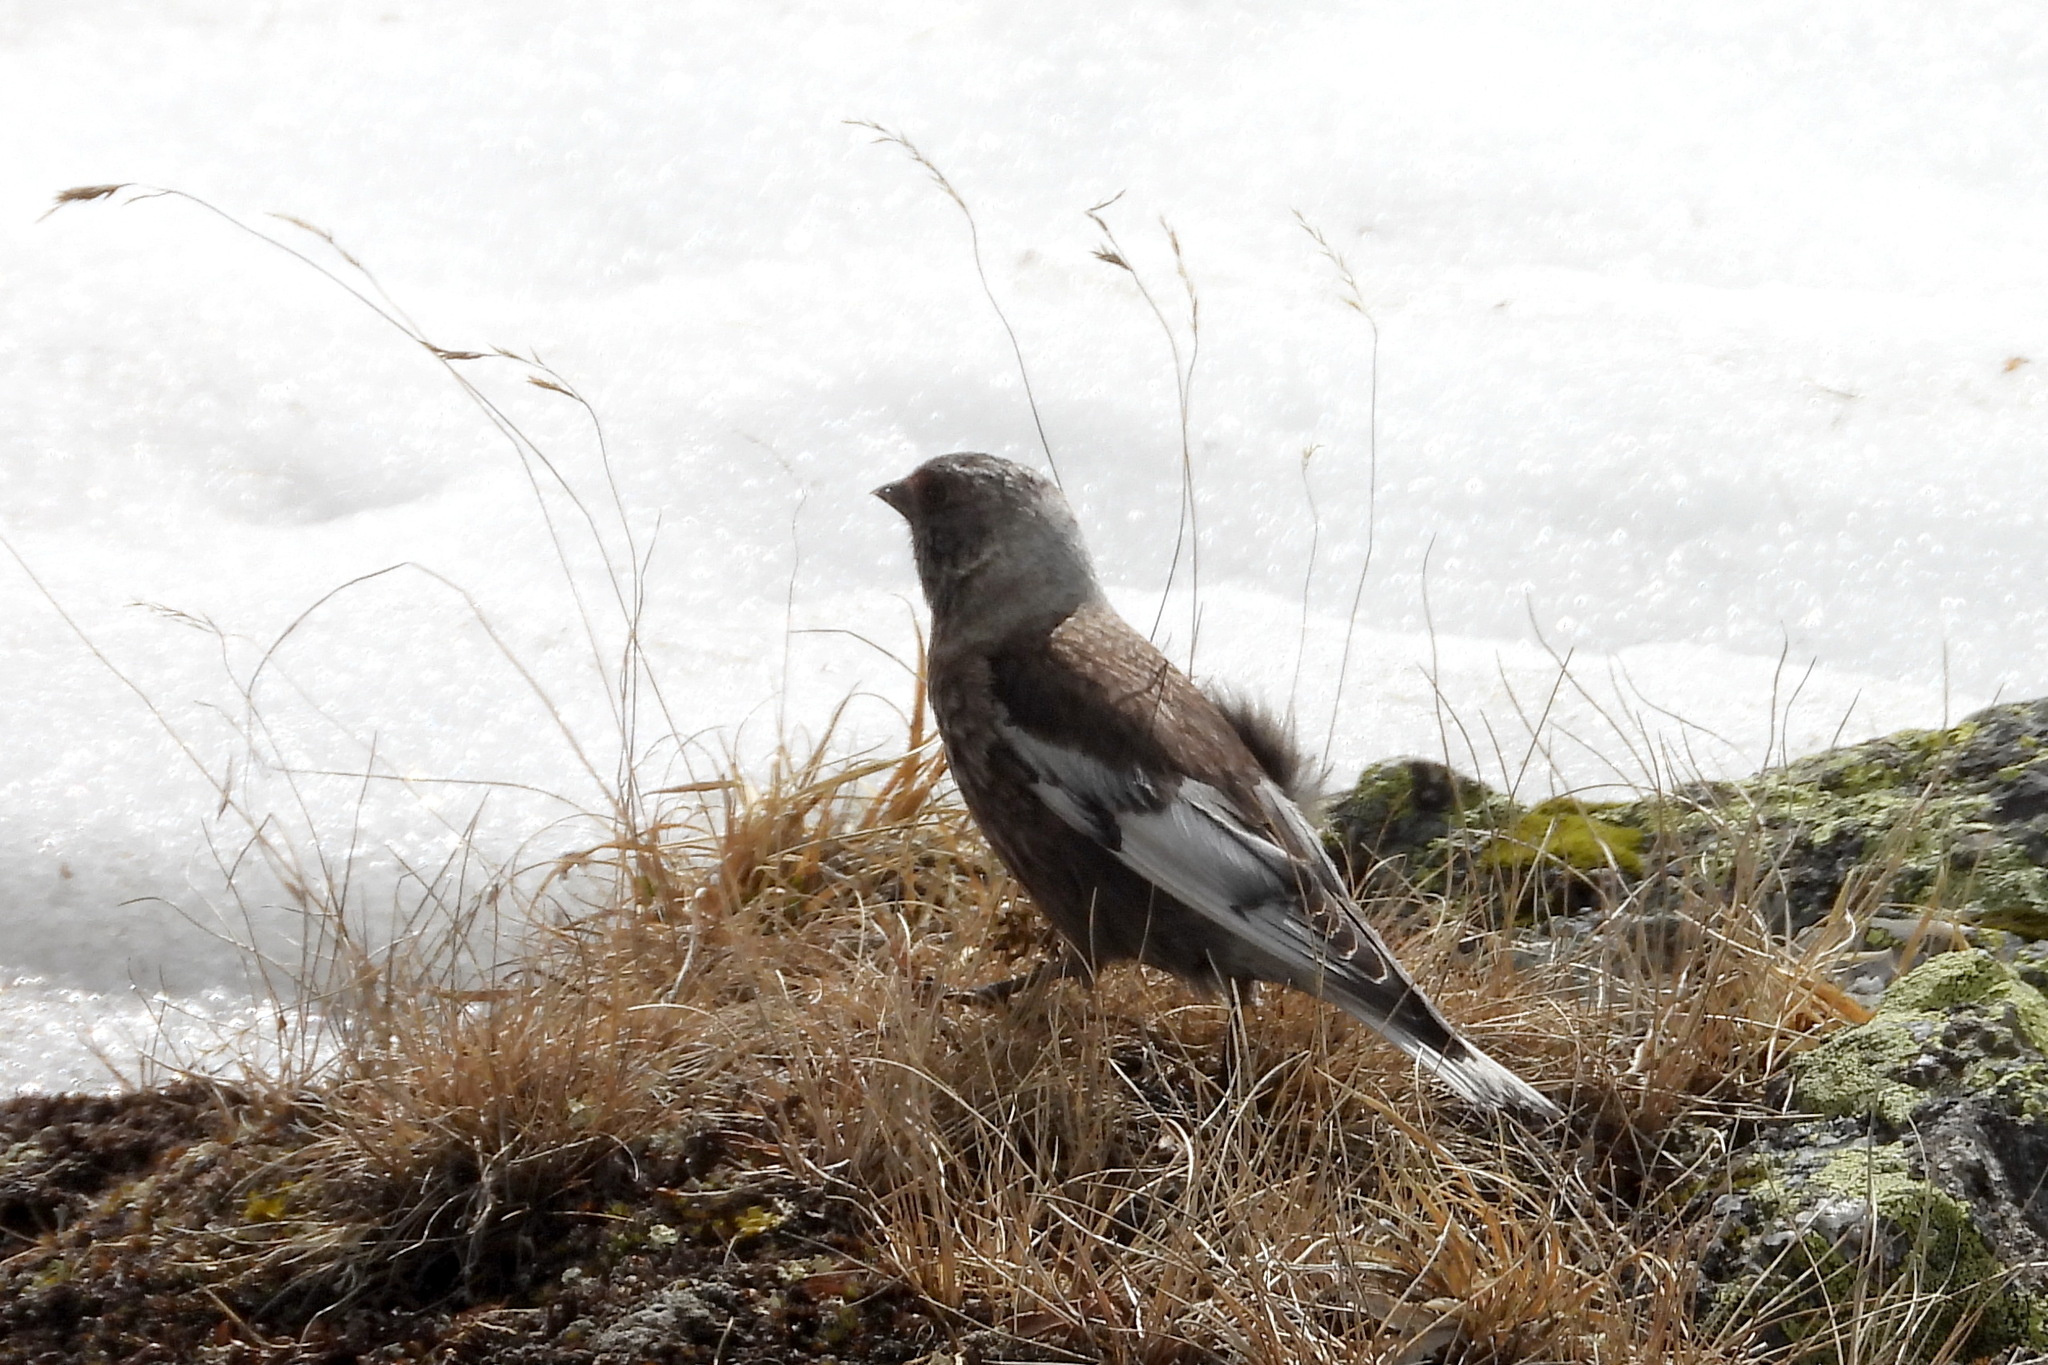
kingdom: Animalia
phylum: Chordata
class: Aves
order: Passeriformes
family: Fringillidae
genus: Leucosticte
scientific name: Leucosticte arctoa
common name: Asian rosy finch
